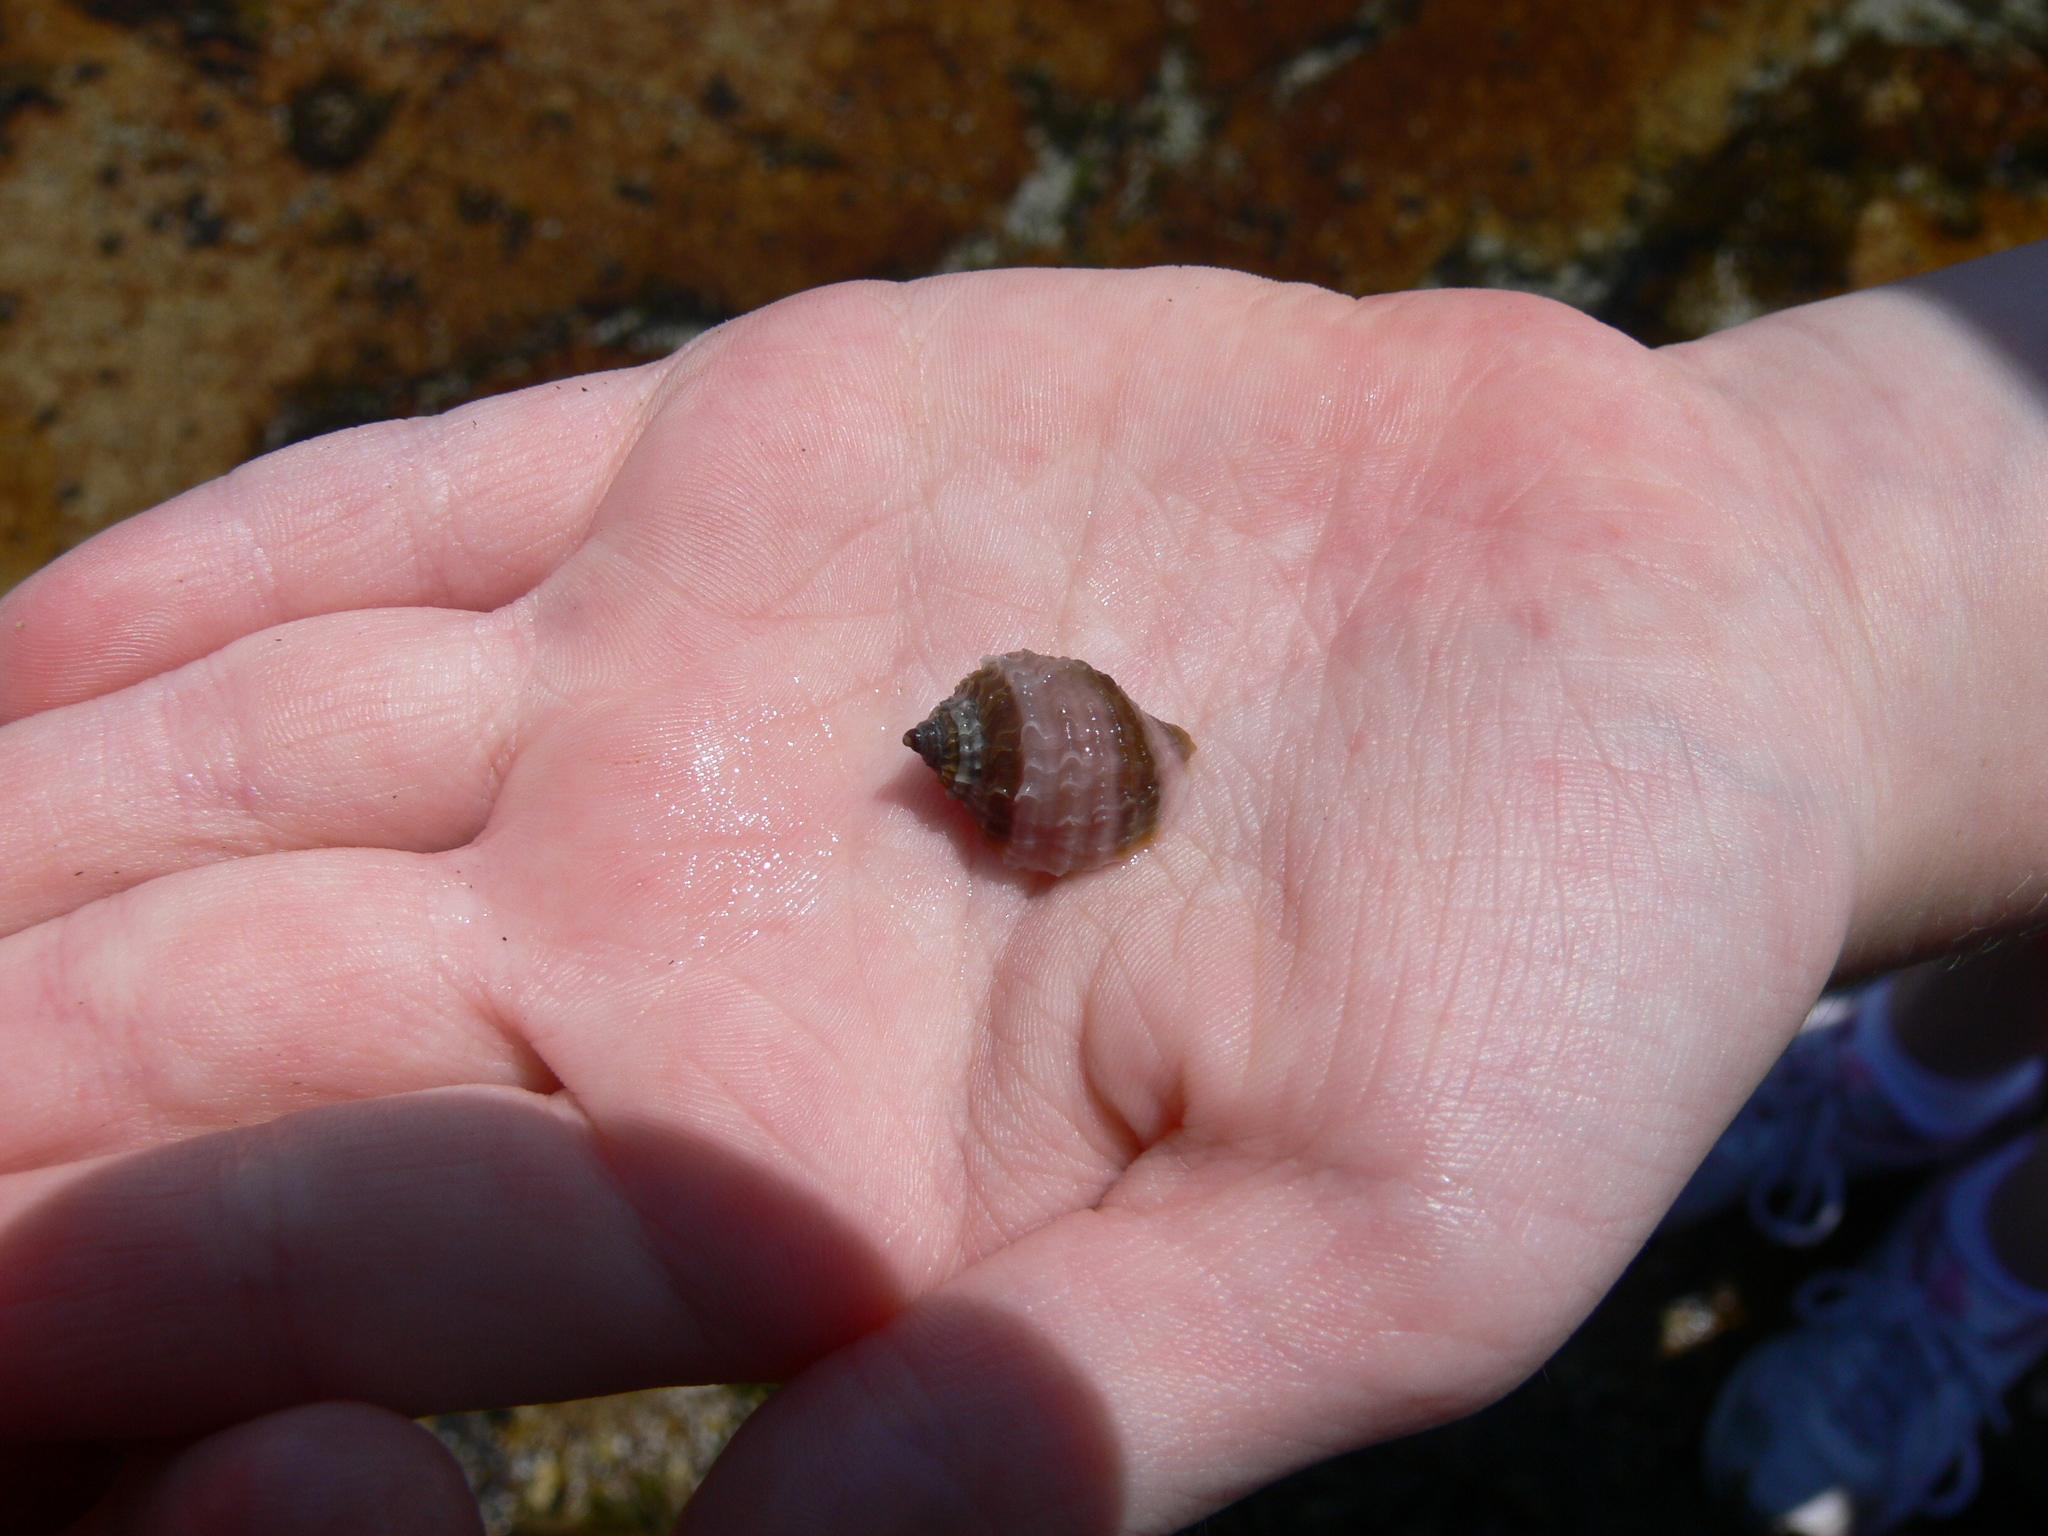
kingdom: Animalia
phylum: Mollusca
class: Gastropoda
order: Neogastropoda
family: Muricidae
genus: Nucella
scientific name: Nucella lapillus
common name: Dog whelk
